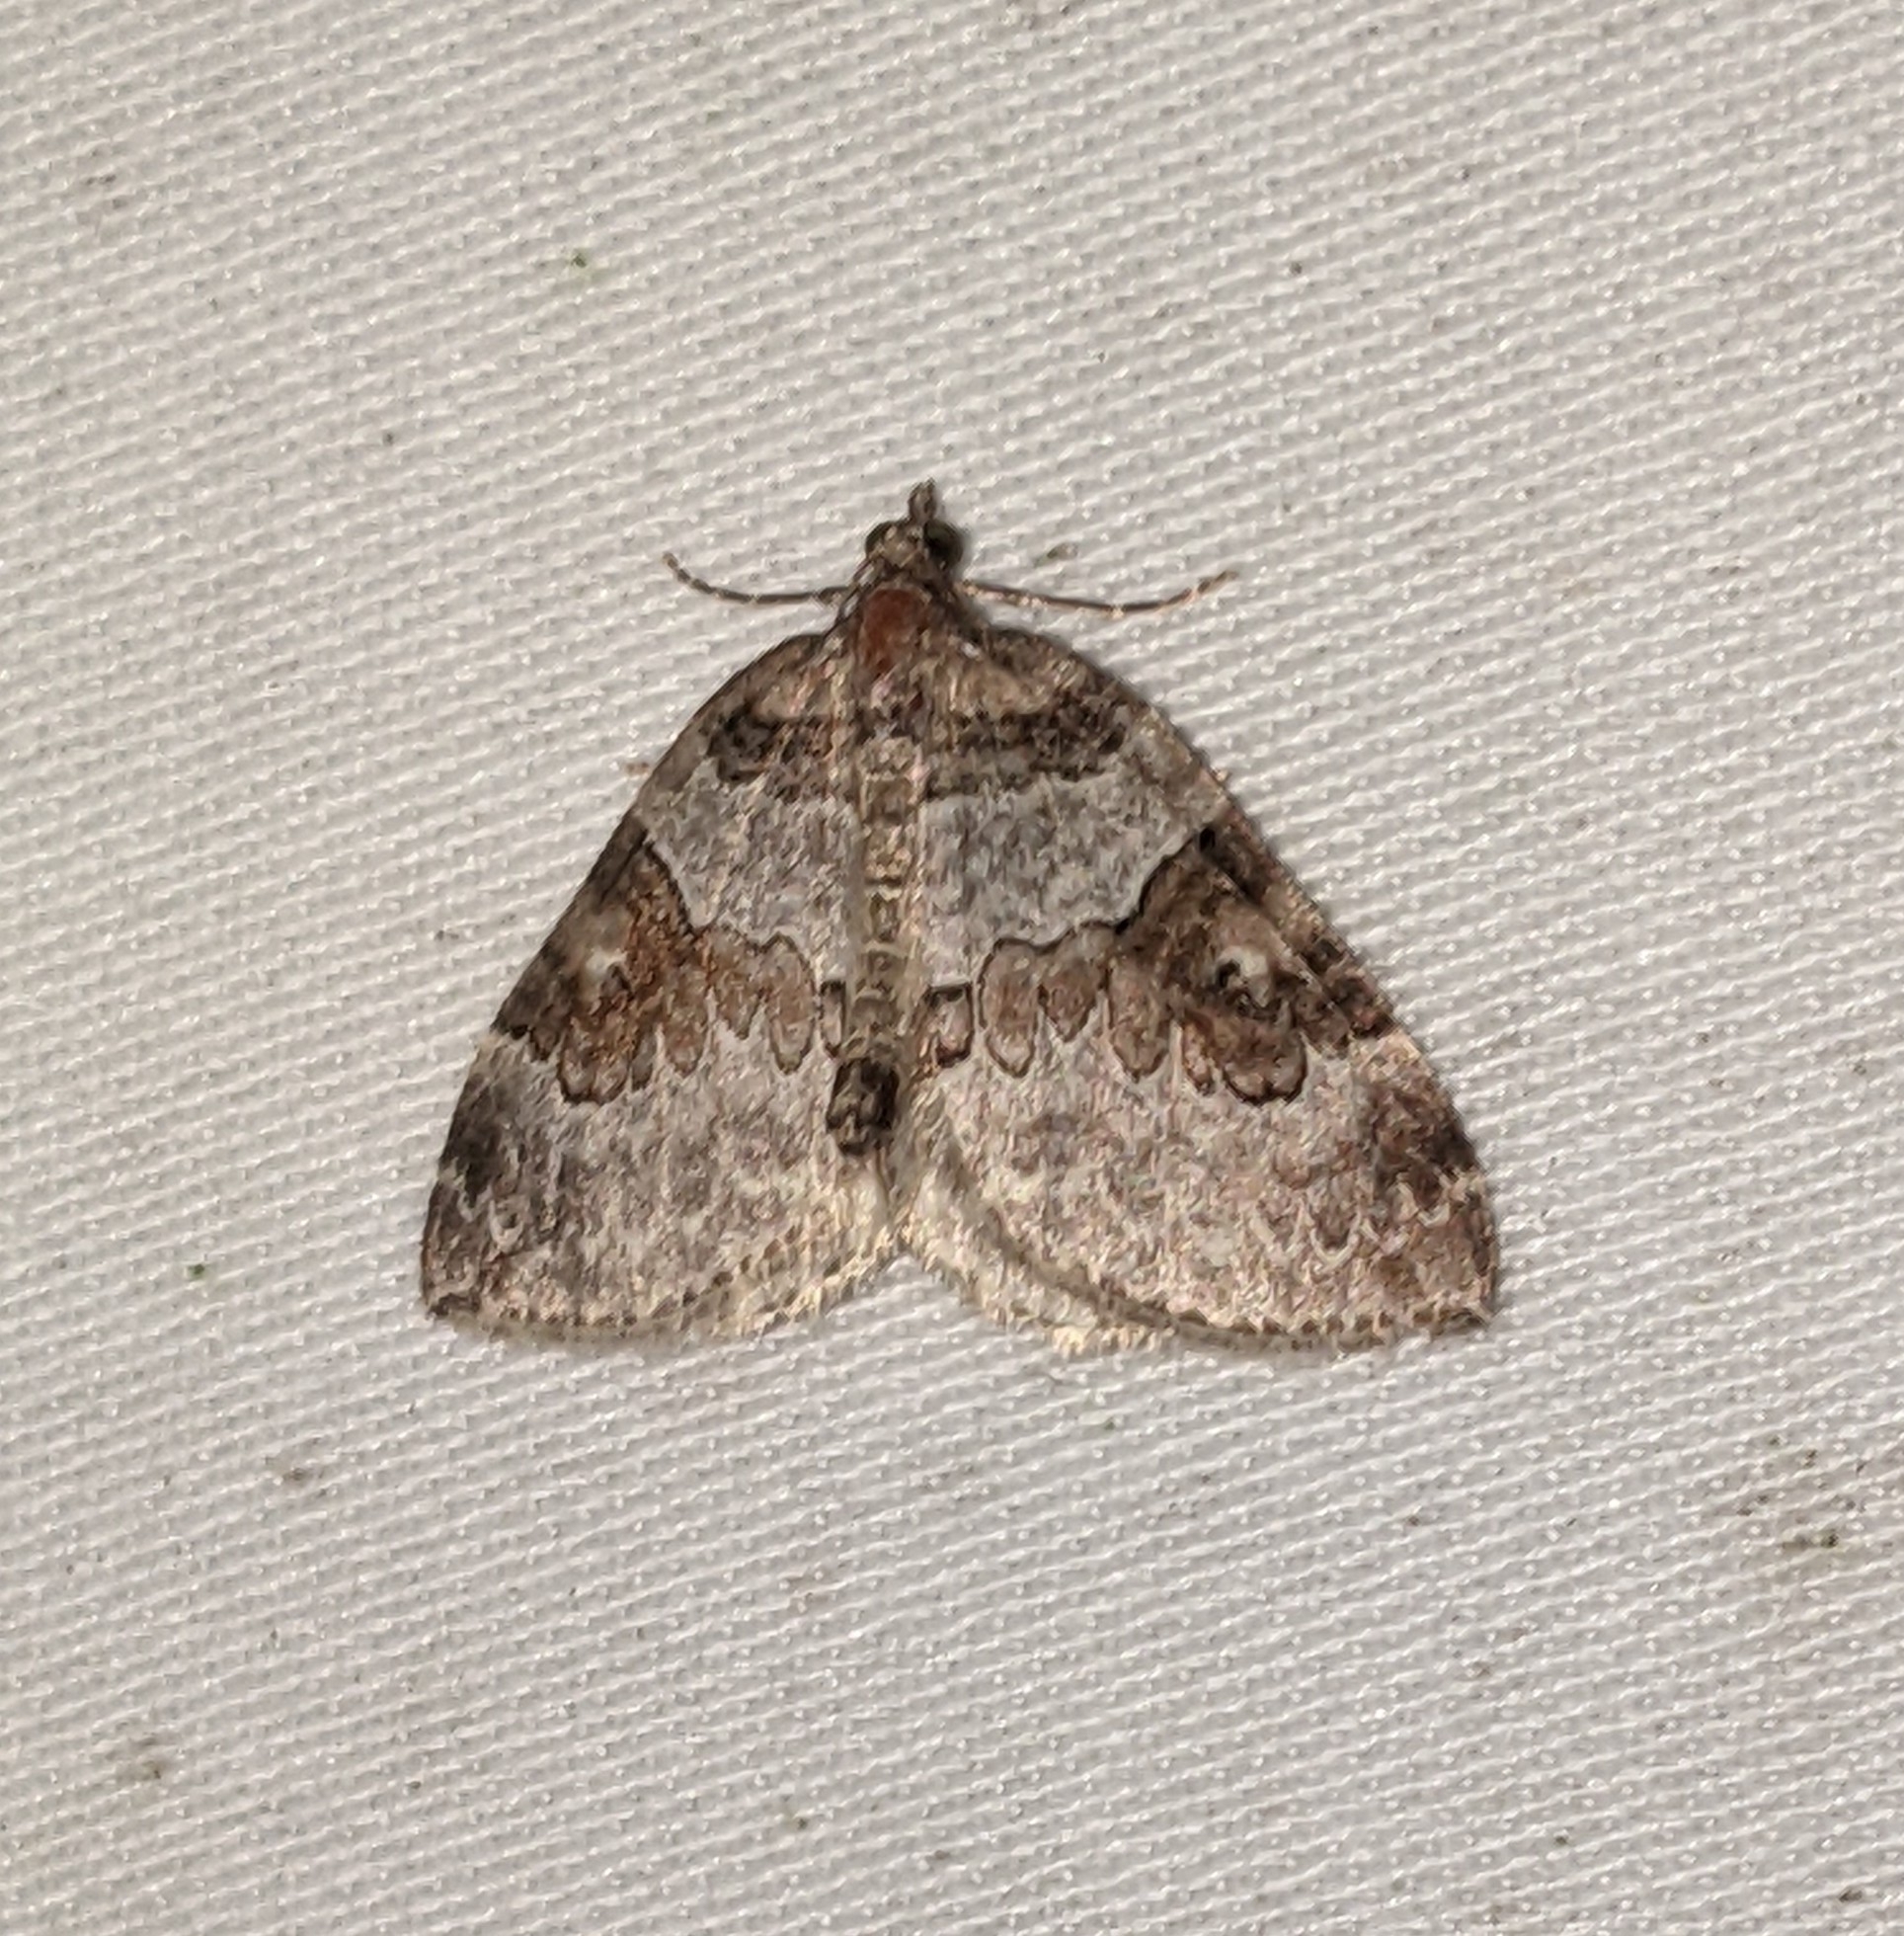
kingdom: Animalia
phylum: Arthropoda
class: Insecta
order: Lepidoptera
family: Geometridae
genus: Plemyria
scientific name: Plemyria georgii
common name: George's carpet moth
